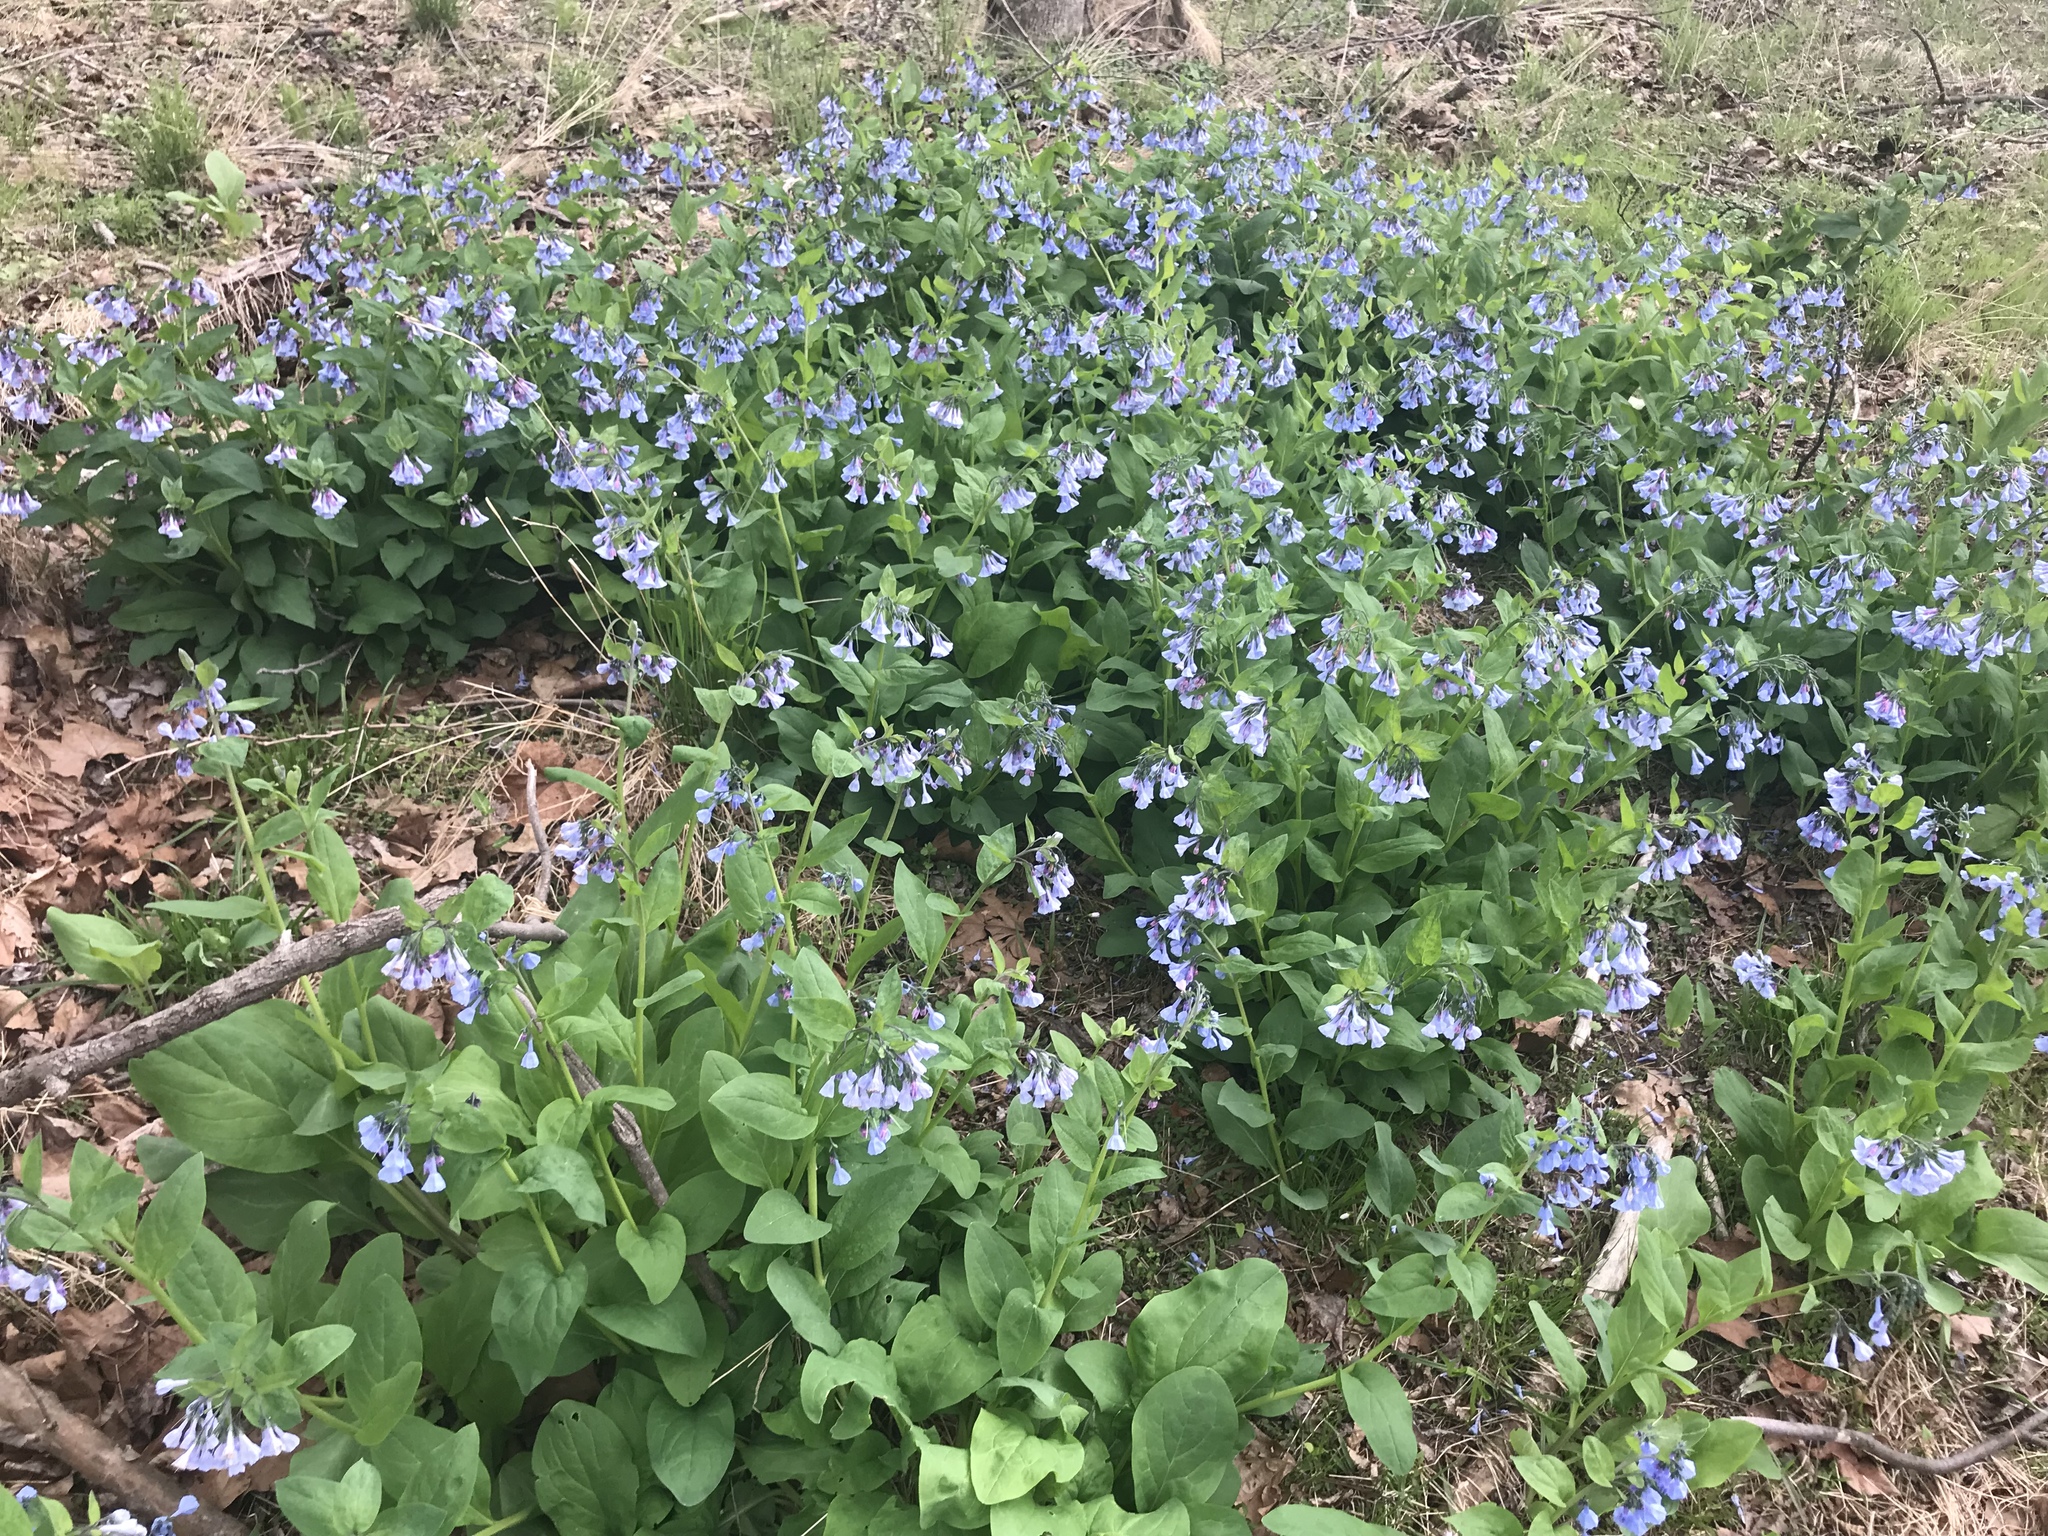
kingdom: Plantae
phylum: Tracheophyta
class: Magnoliopsida
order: Boraginales
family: Boraginaceae
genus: Mertensia
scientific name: Mertensia virginica
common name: Virginia bluebells
